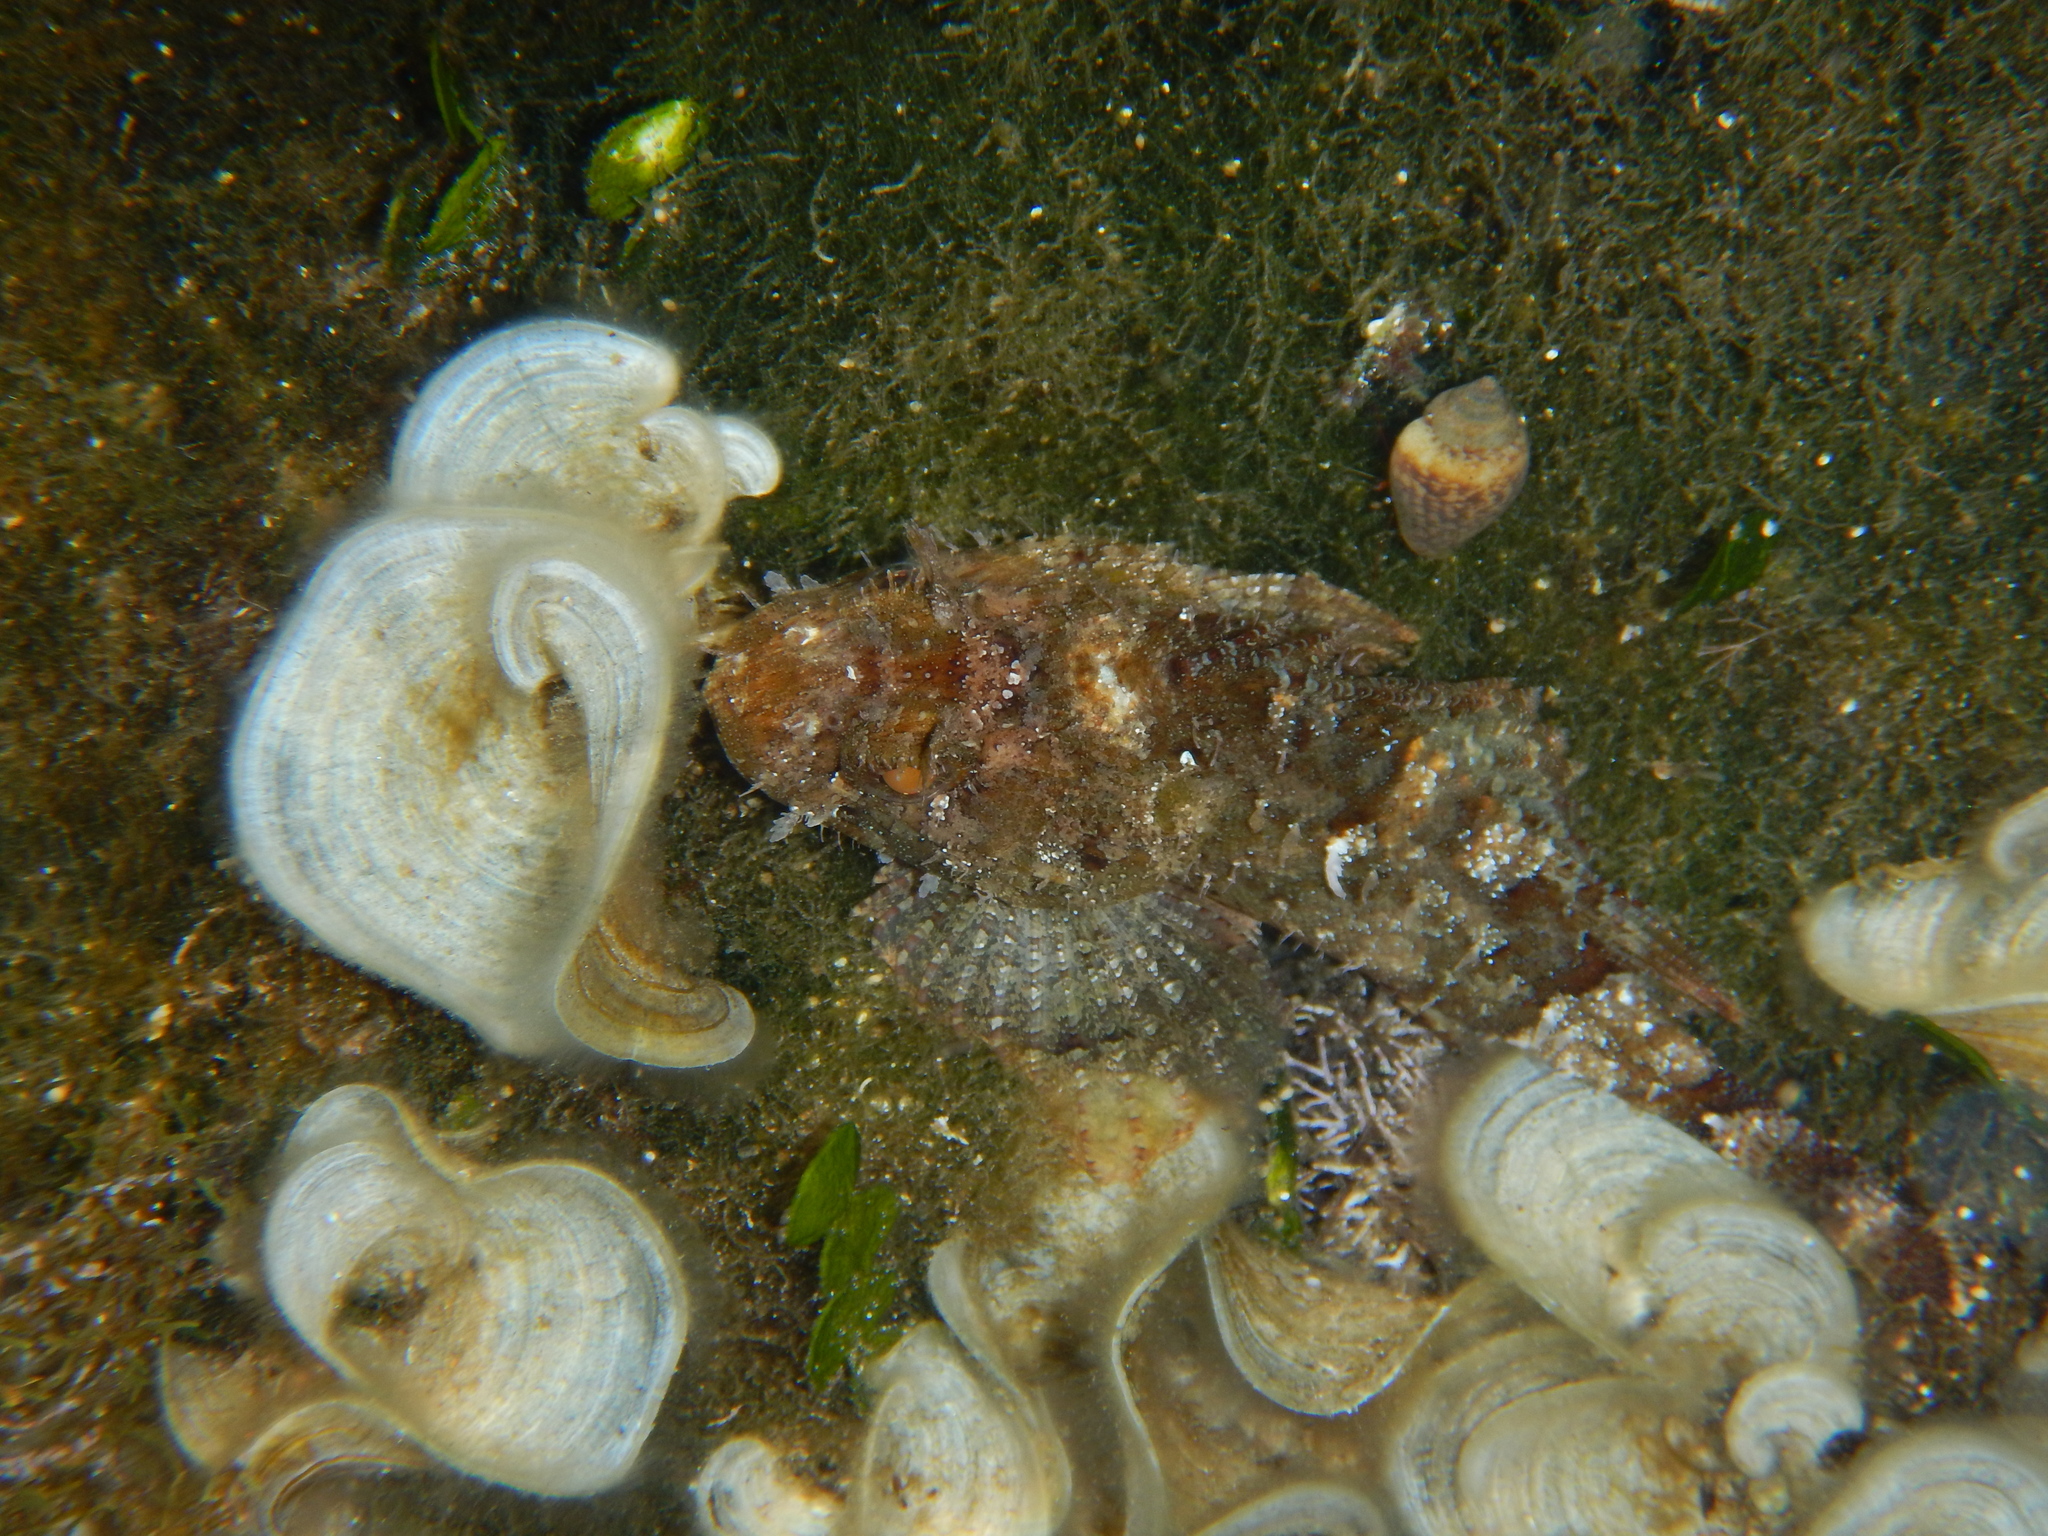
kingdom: Animalia
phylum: Chordata
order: Scorpaeniformes
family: Scorpaenidae
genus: Scorpaena
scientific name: Scorpaena porcus
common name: Black scorpionfish
